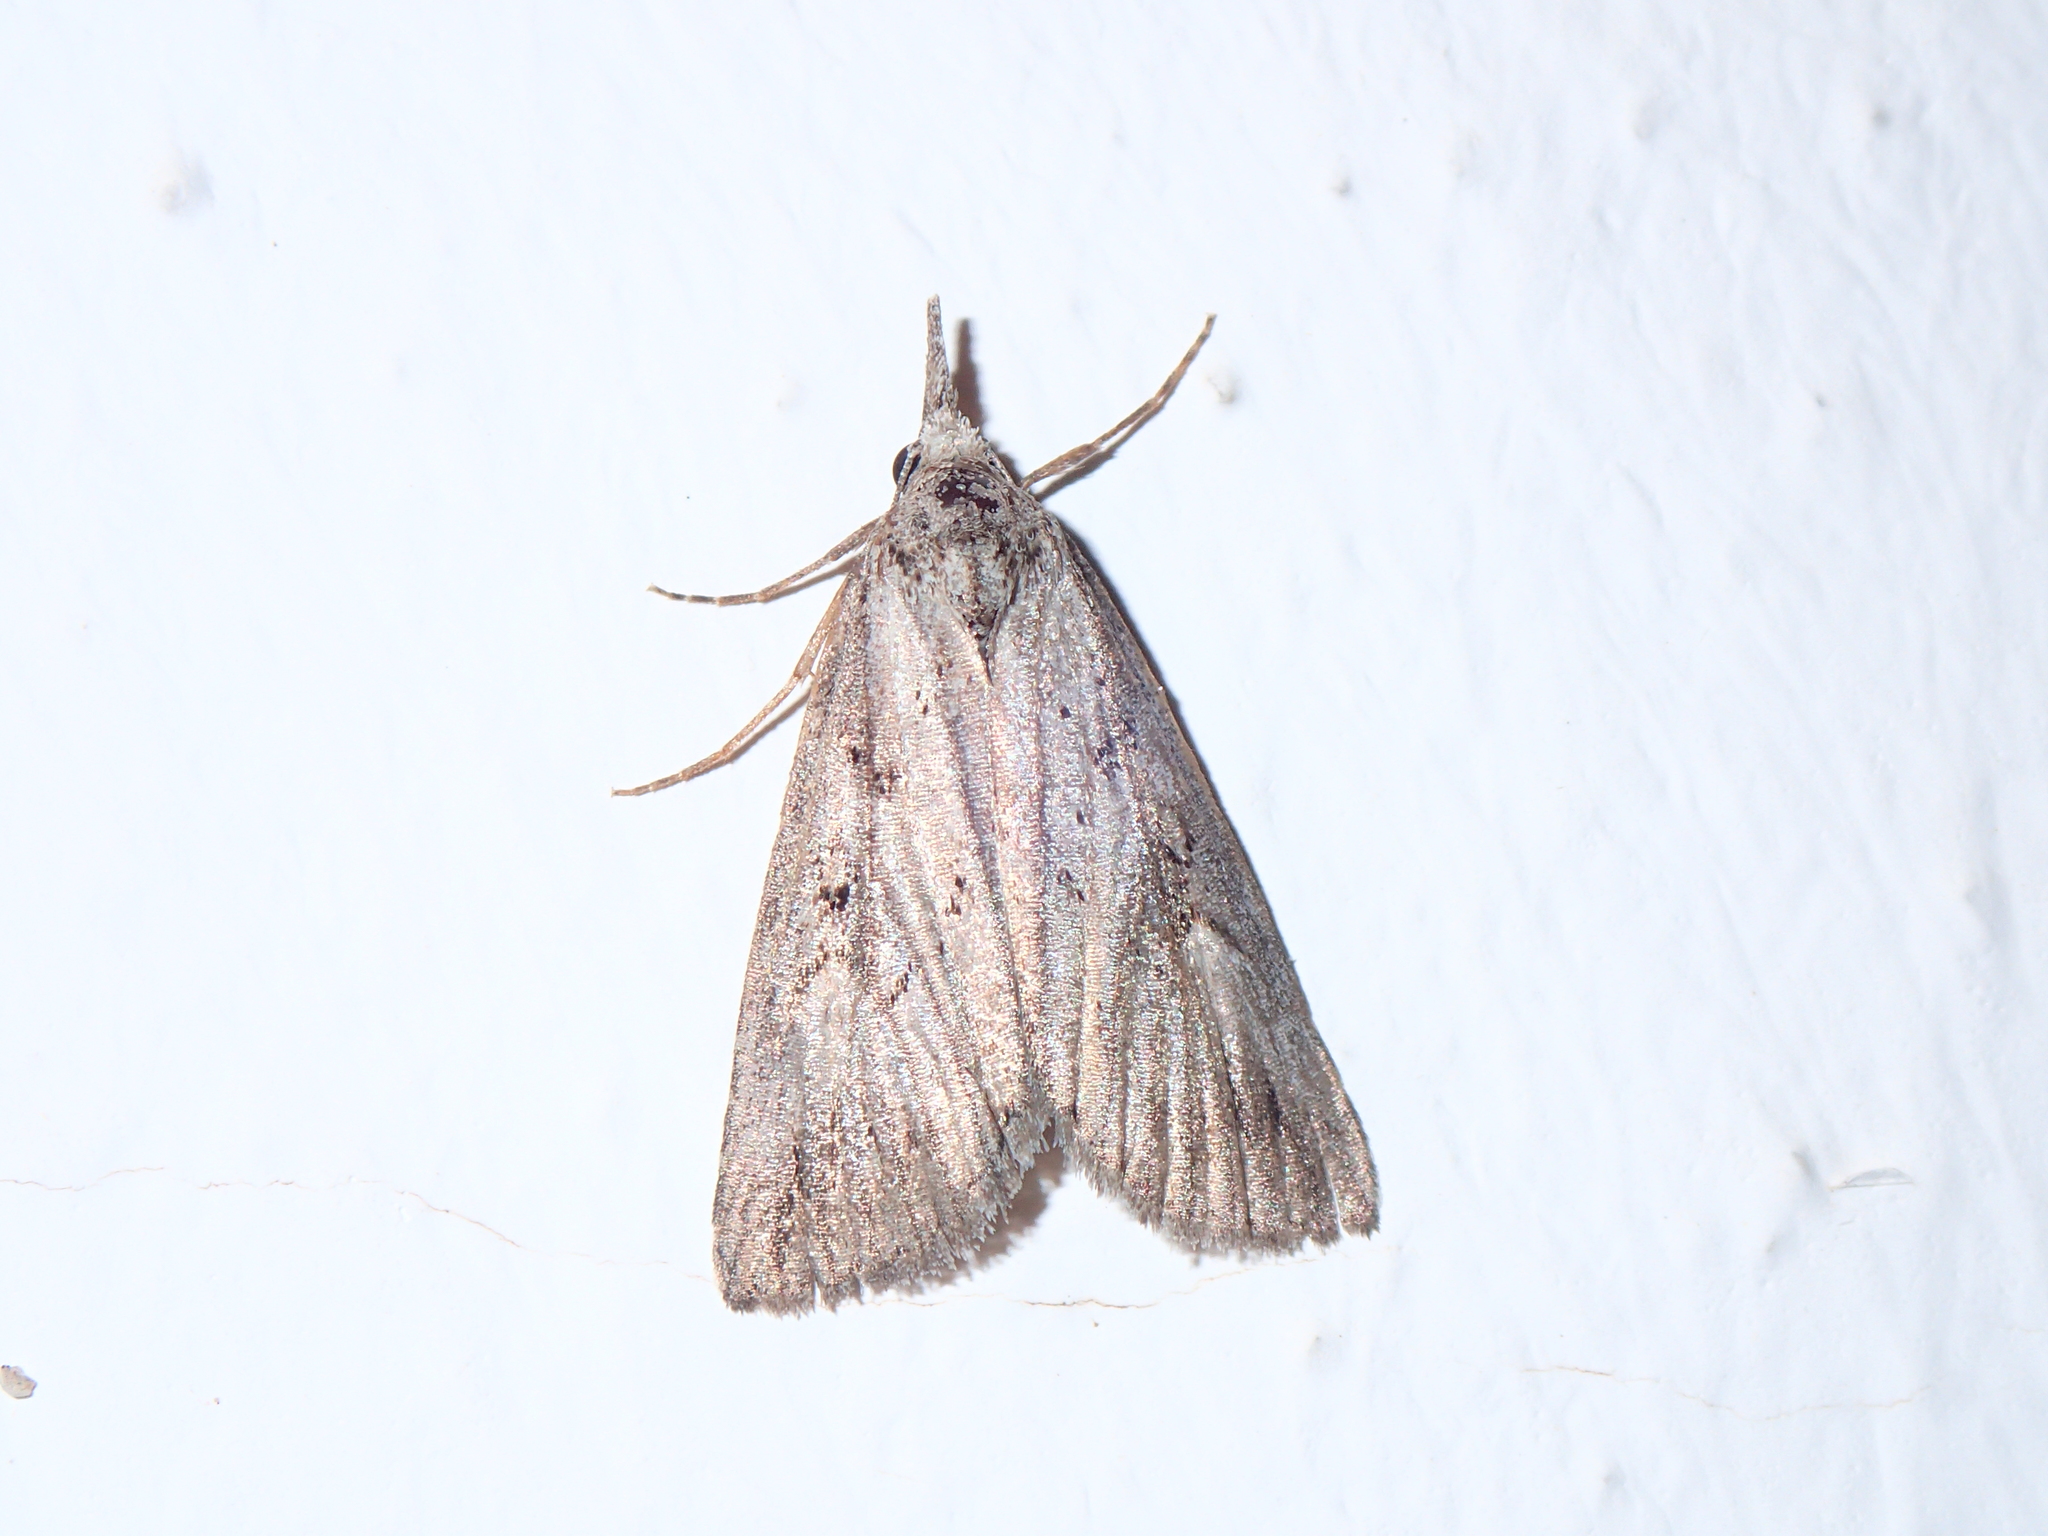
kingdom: Animalia
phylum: Arthropoda
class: Insecta
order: Lepidoptera
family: Erebidae
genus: Rhynchina
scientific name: Rhynchina canariensis
